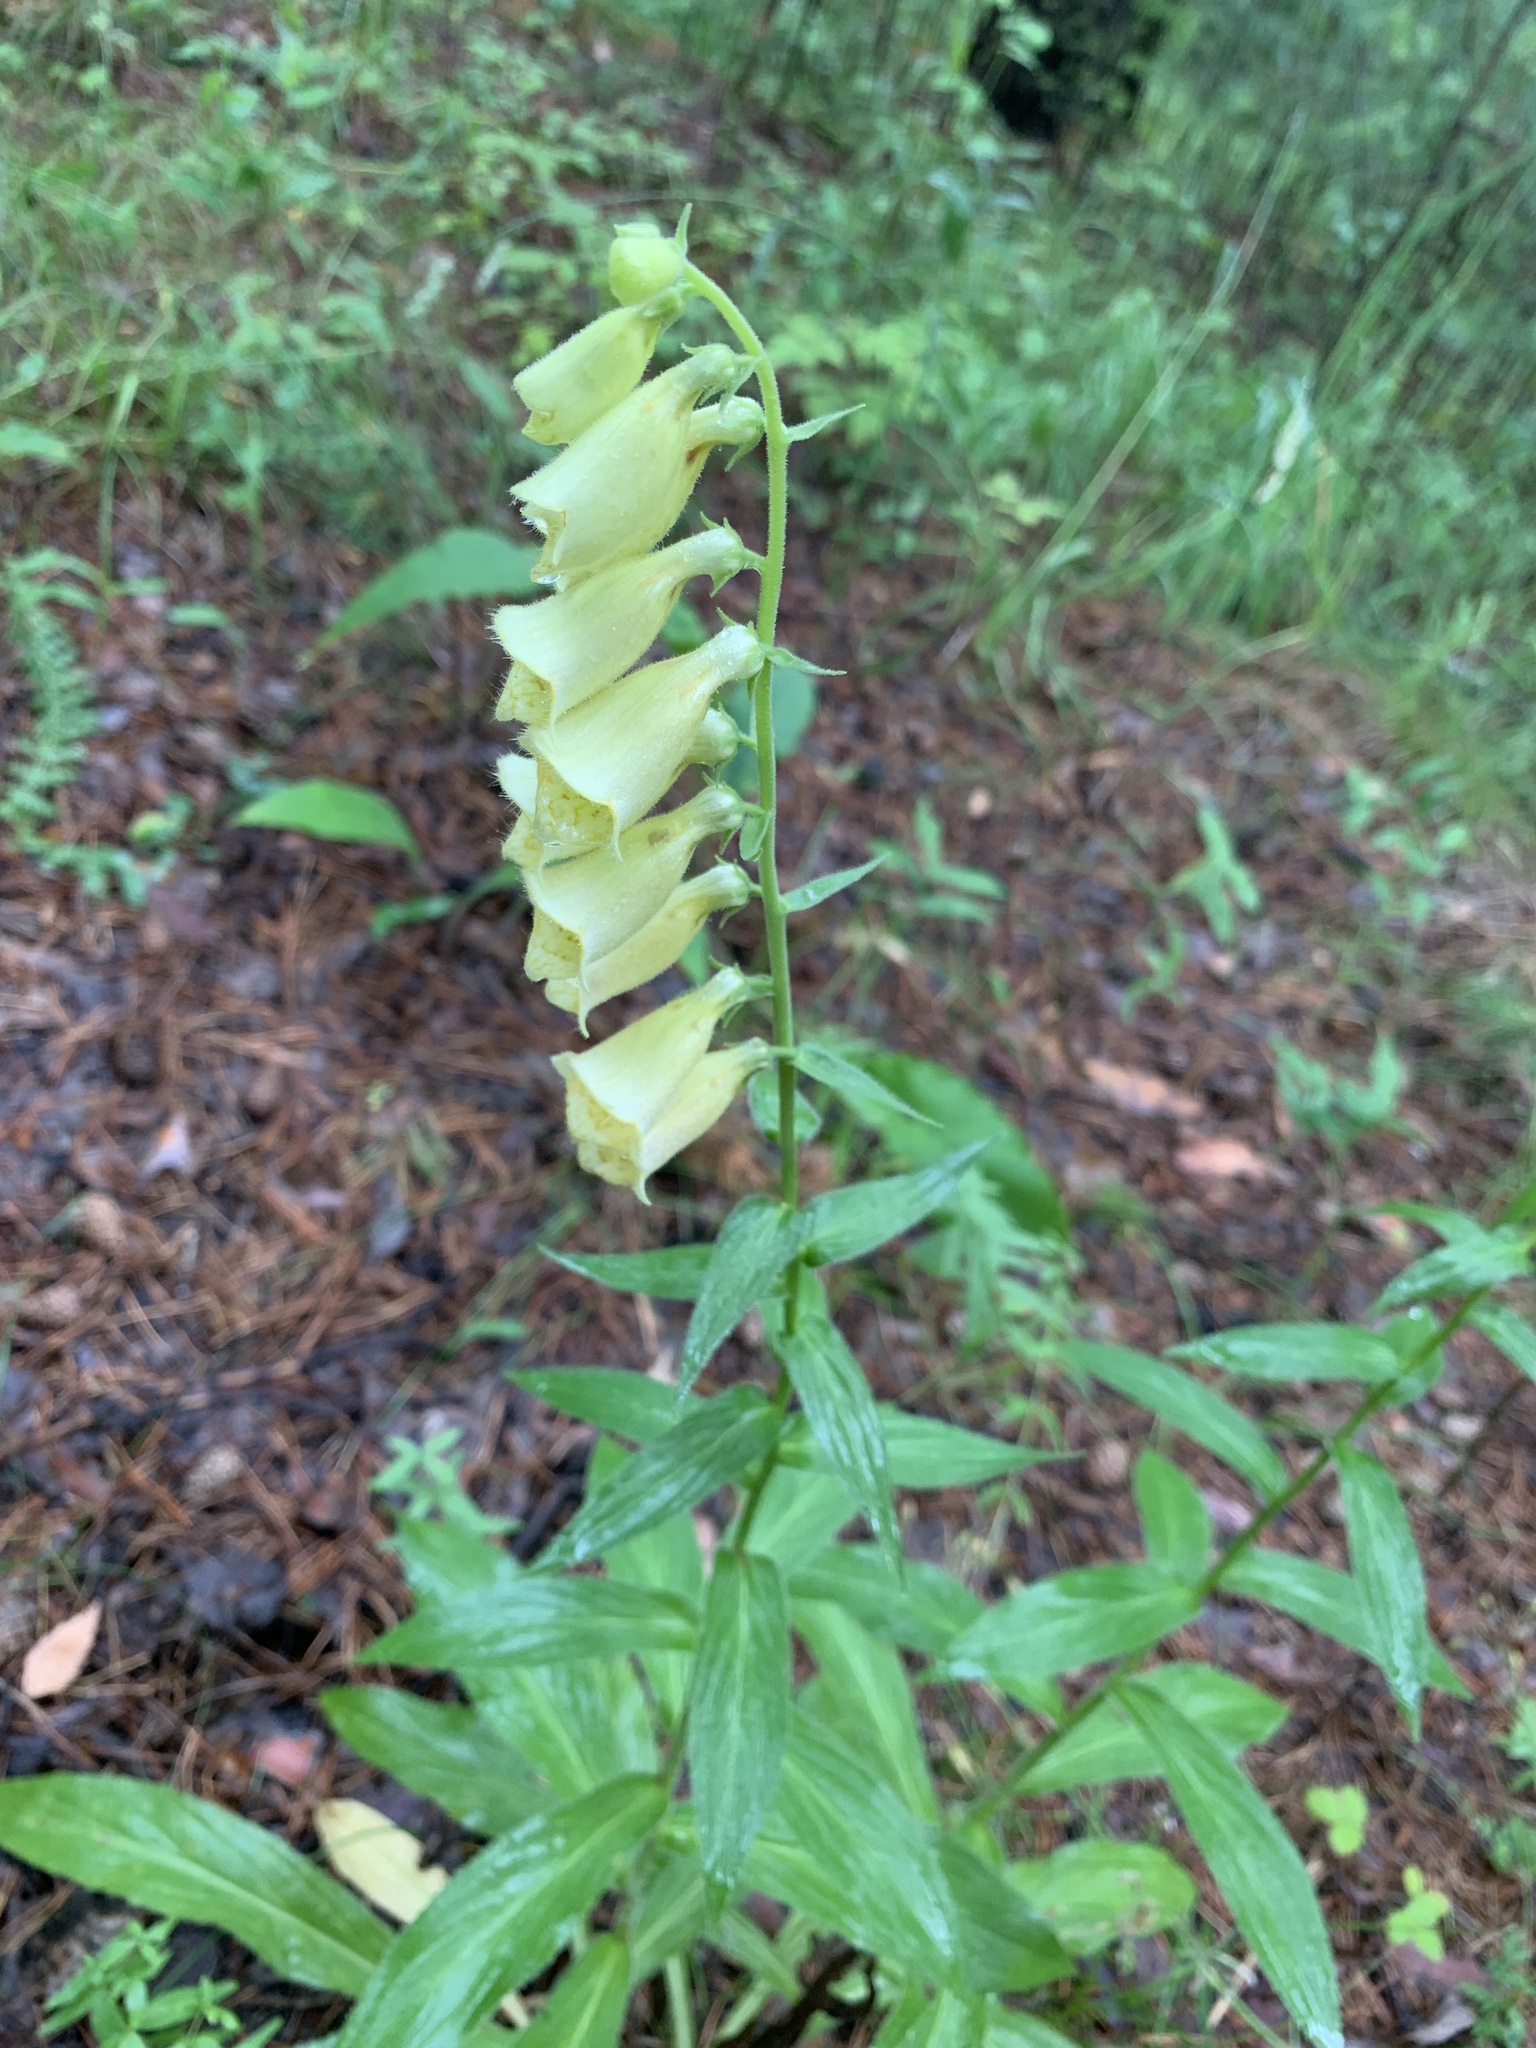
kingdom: Plantae
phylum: Tracheophyta
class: Magnoliopsida
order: Lamiales
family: Plantaginaceae
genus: Digitalis
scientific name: Digitalis grandiflora
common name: Yellow foxglove
